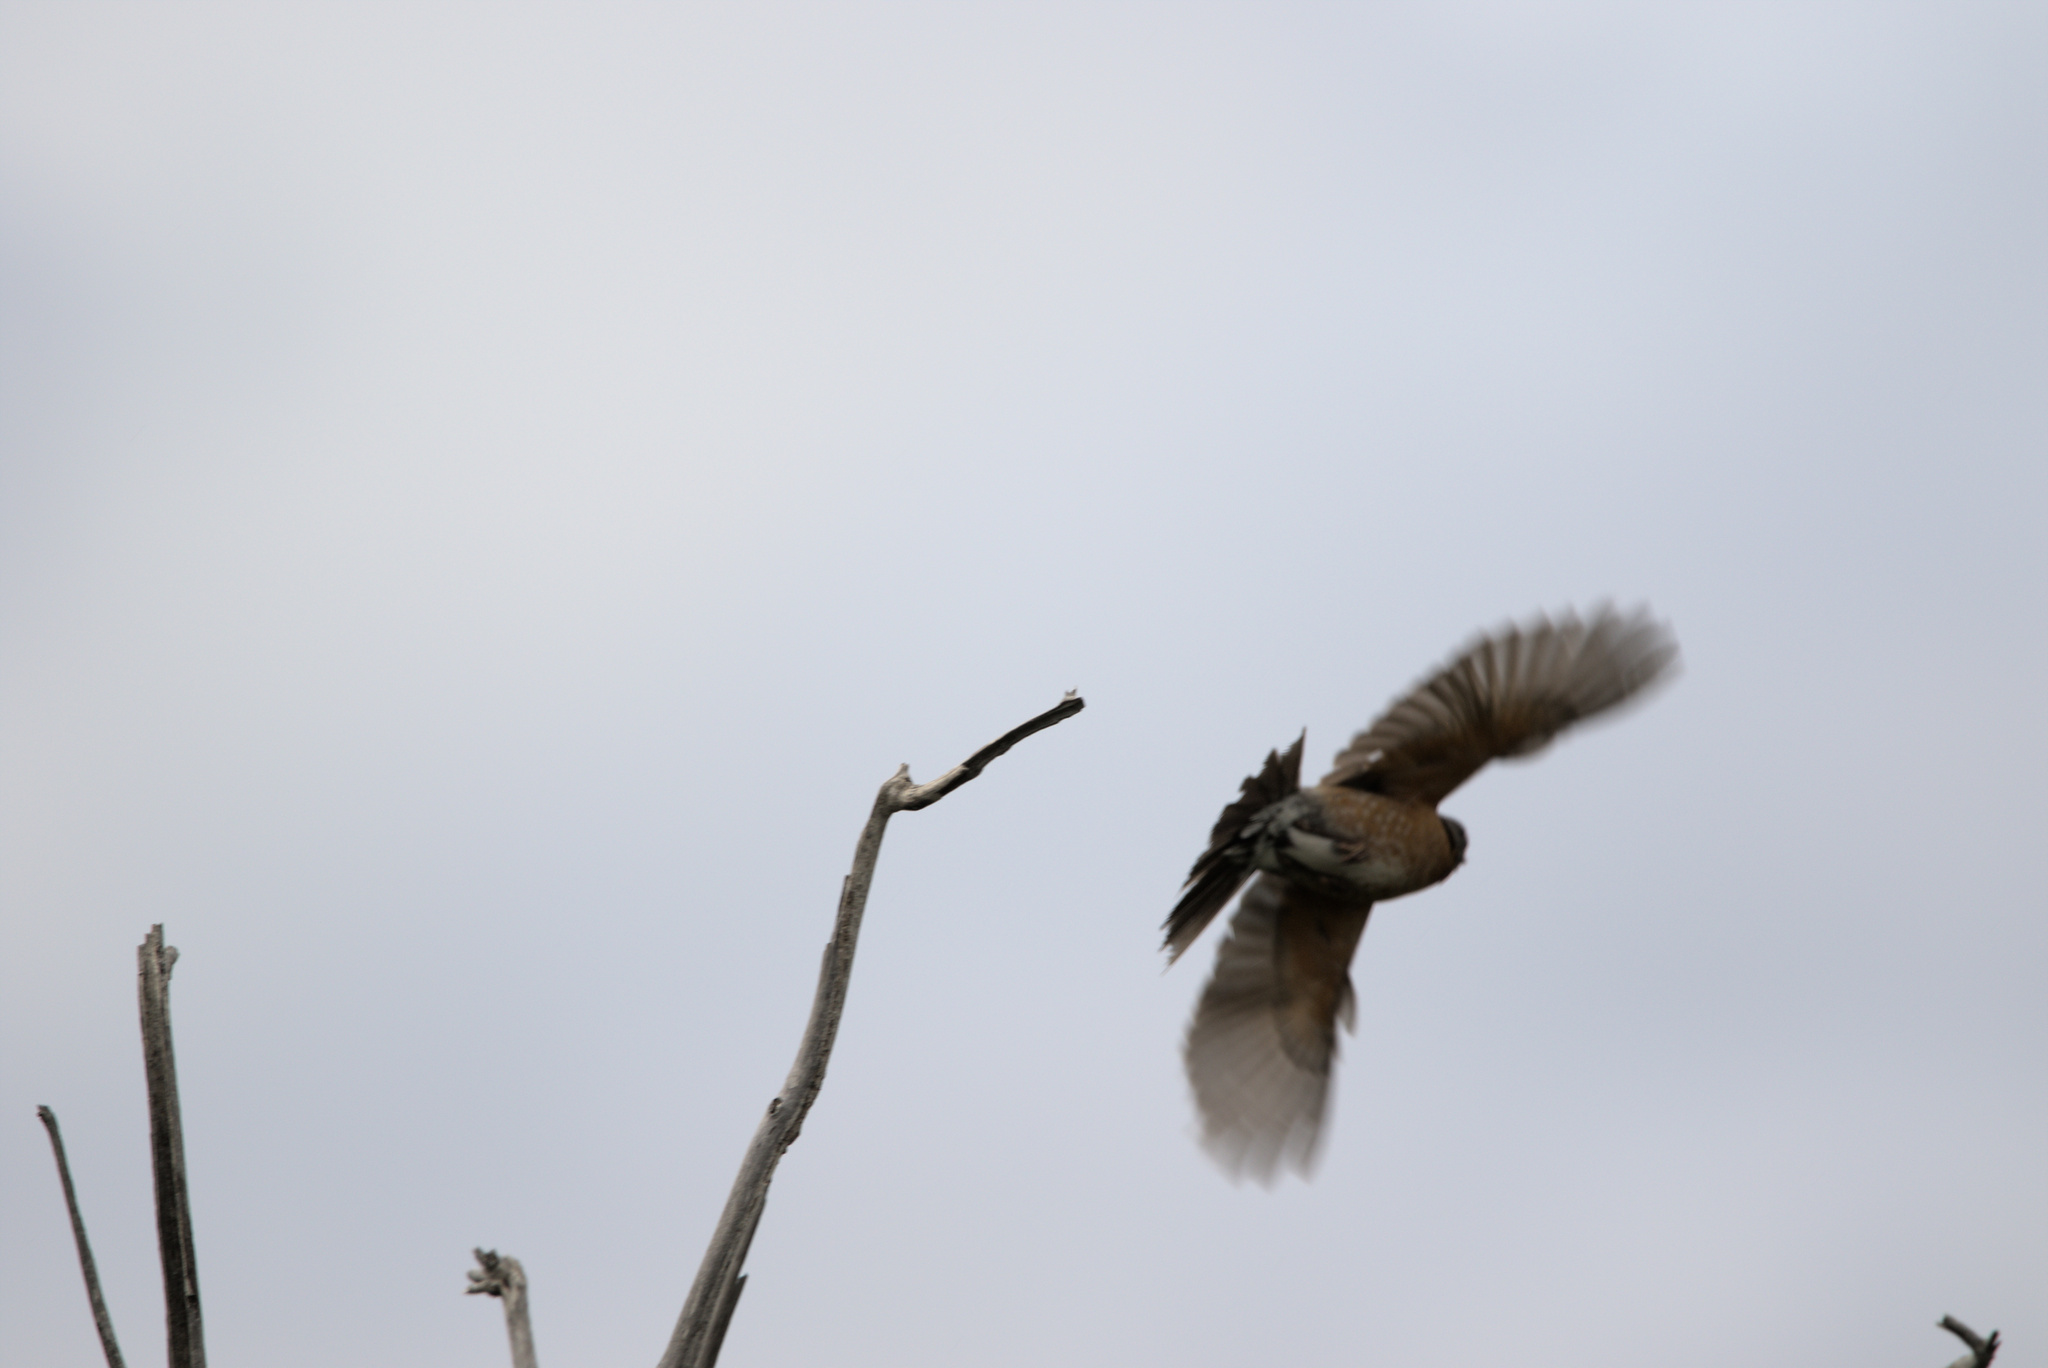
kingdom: Animalia
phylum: Chordata
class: Aves
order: Falconiformes
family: Falconidae
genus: Falco
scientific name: Falco sparverius
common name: American kestrel
